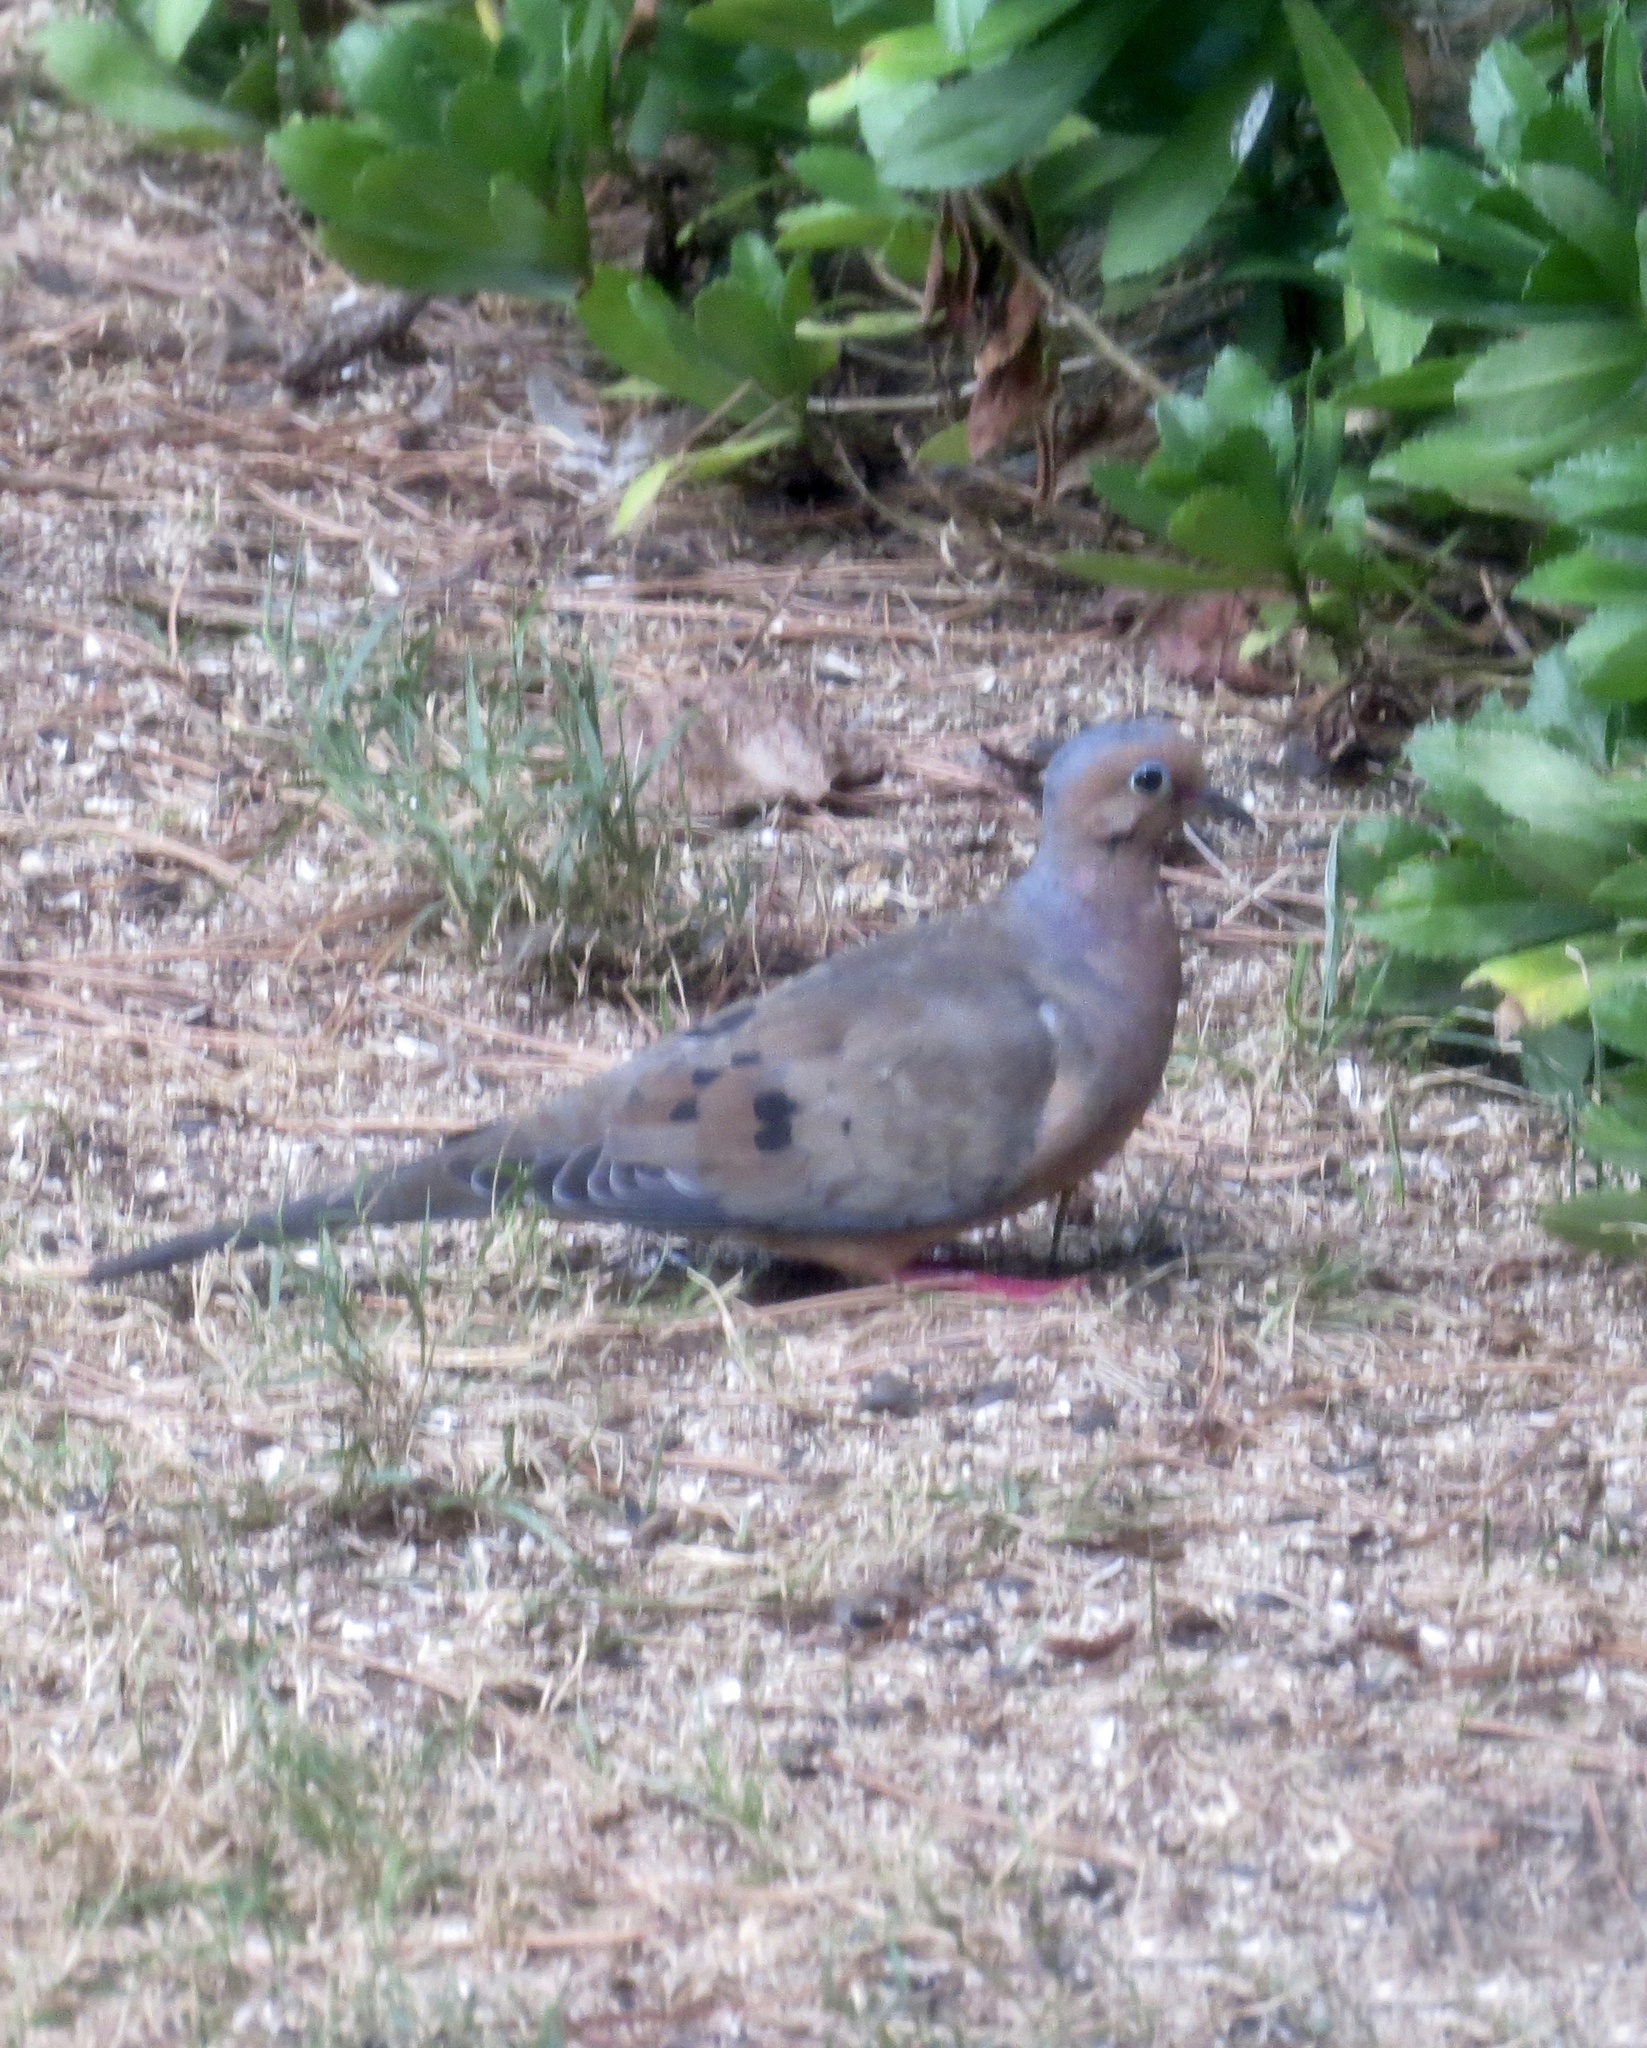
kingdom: Animalia
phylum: Chordata
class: Aves
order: Columbiformes
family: Columbidae
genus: Zenaida
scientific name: Zenaida macroura
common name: Mourning dove
